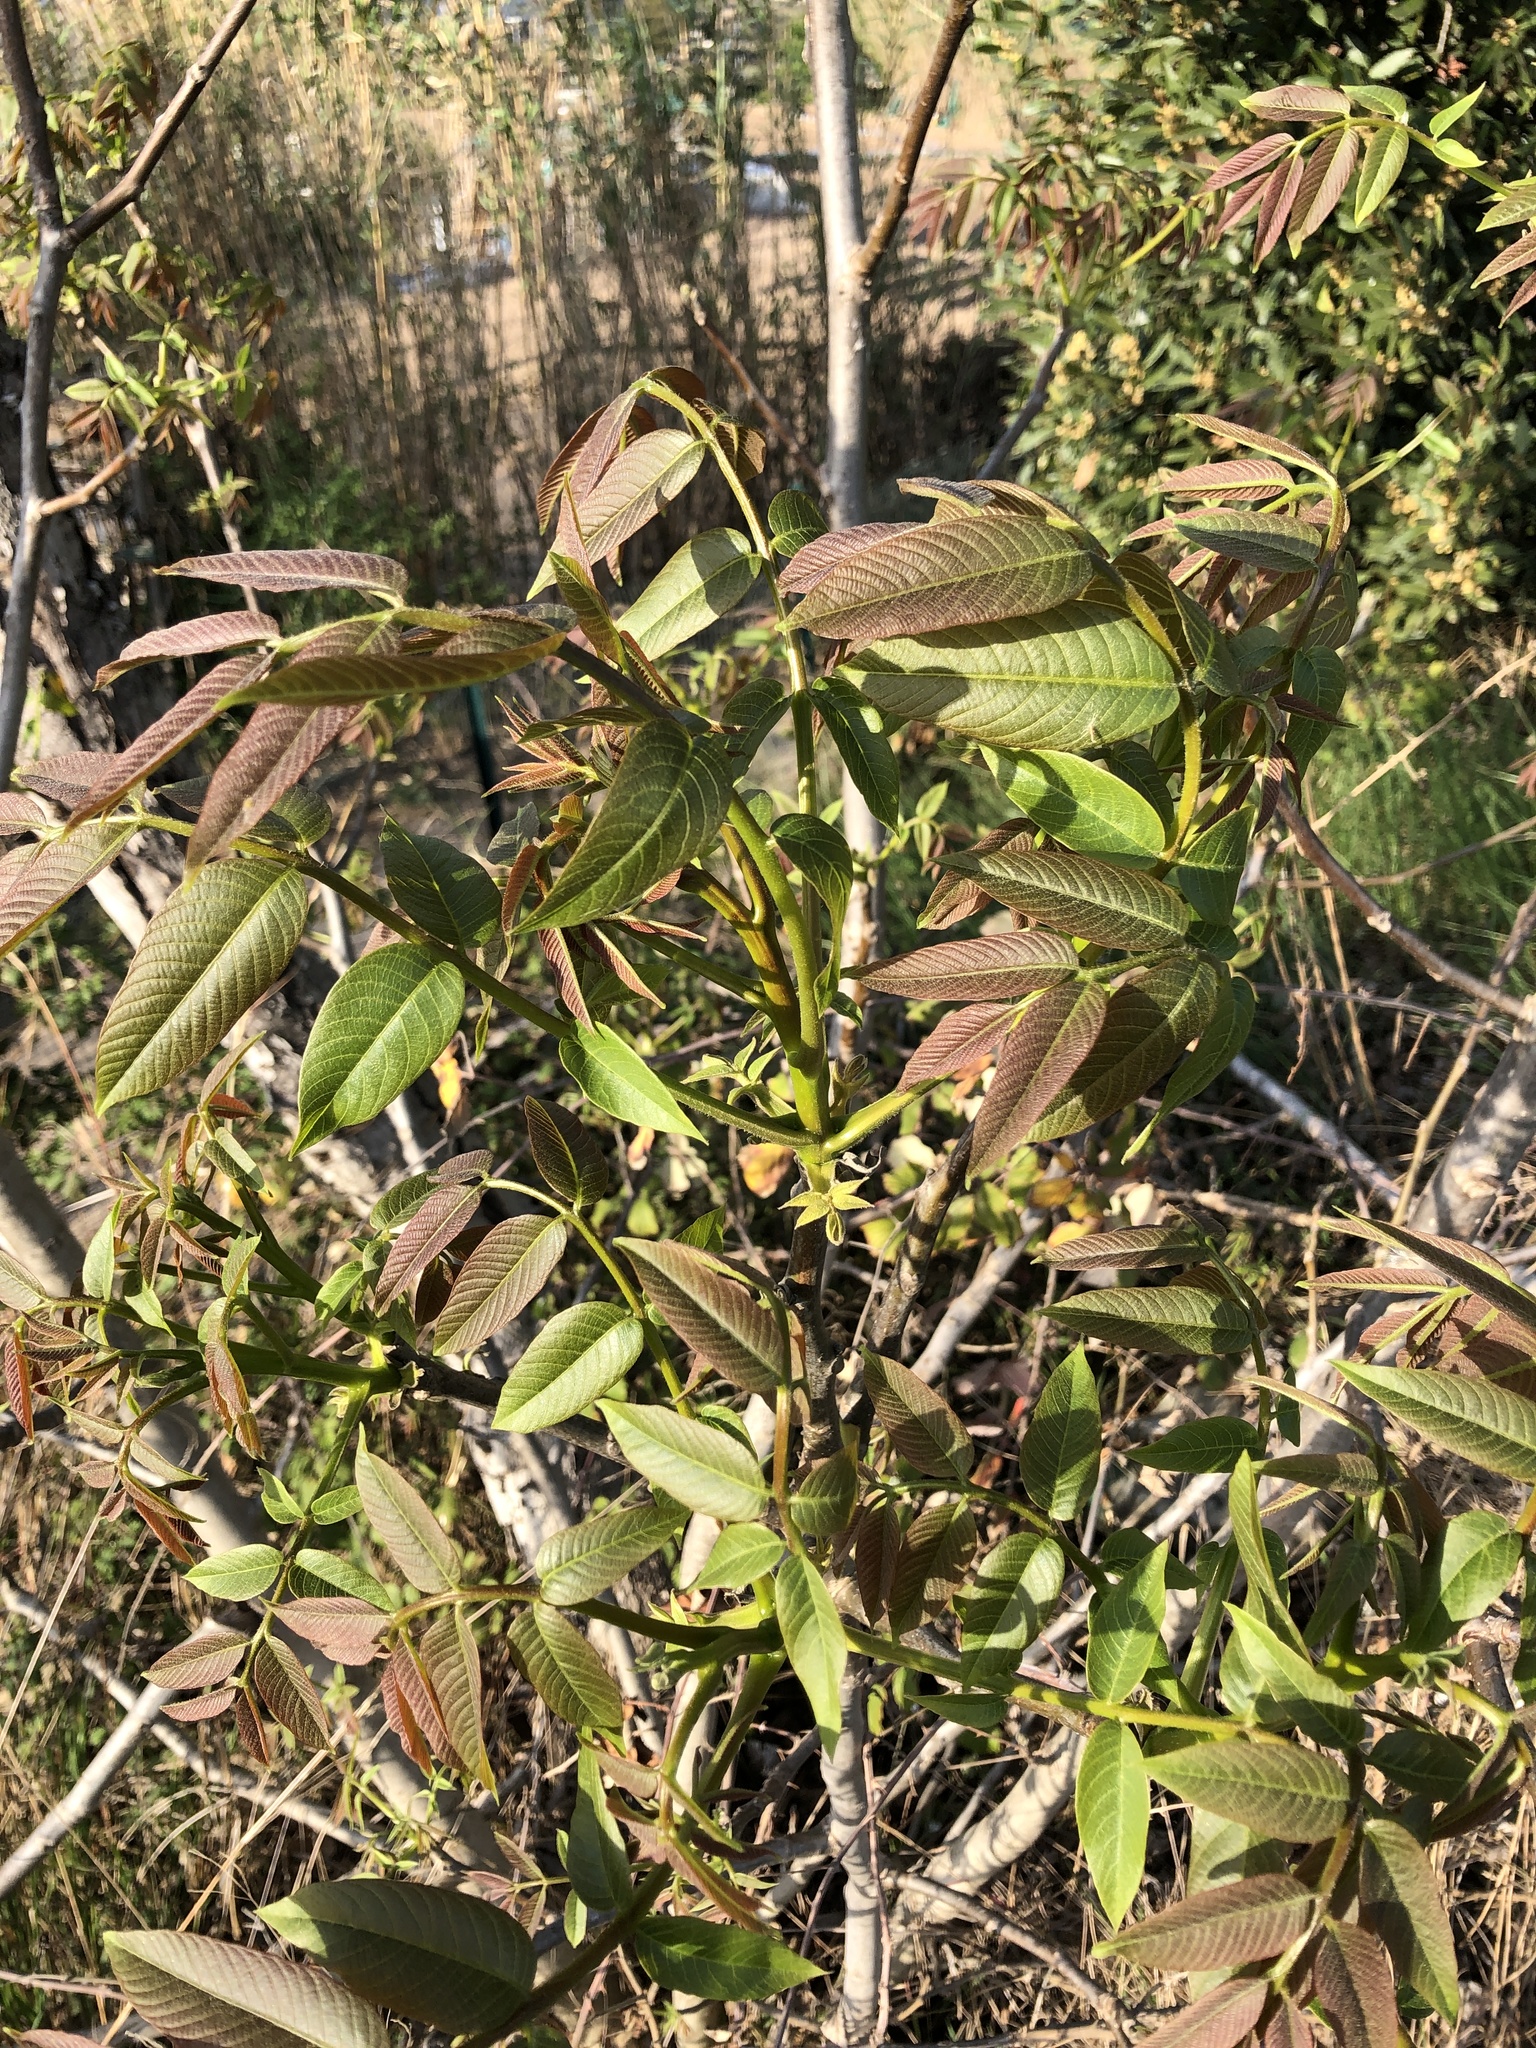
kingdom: Plantae
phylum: Tracheophyta
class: Magnoliopsida
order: Fagales
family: Juglandaceae
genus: Juglans
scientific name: Juglans regia
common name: Walnut
